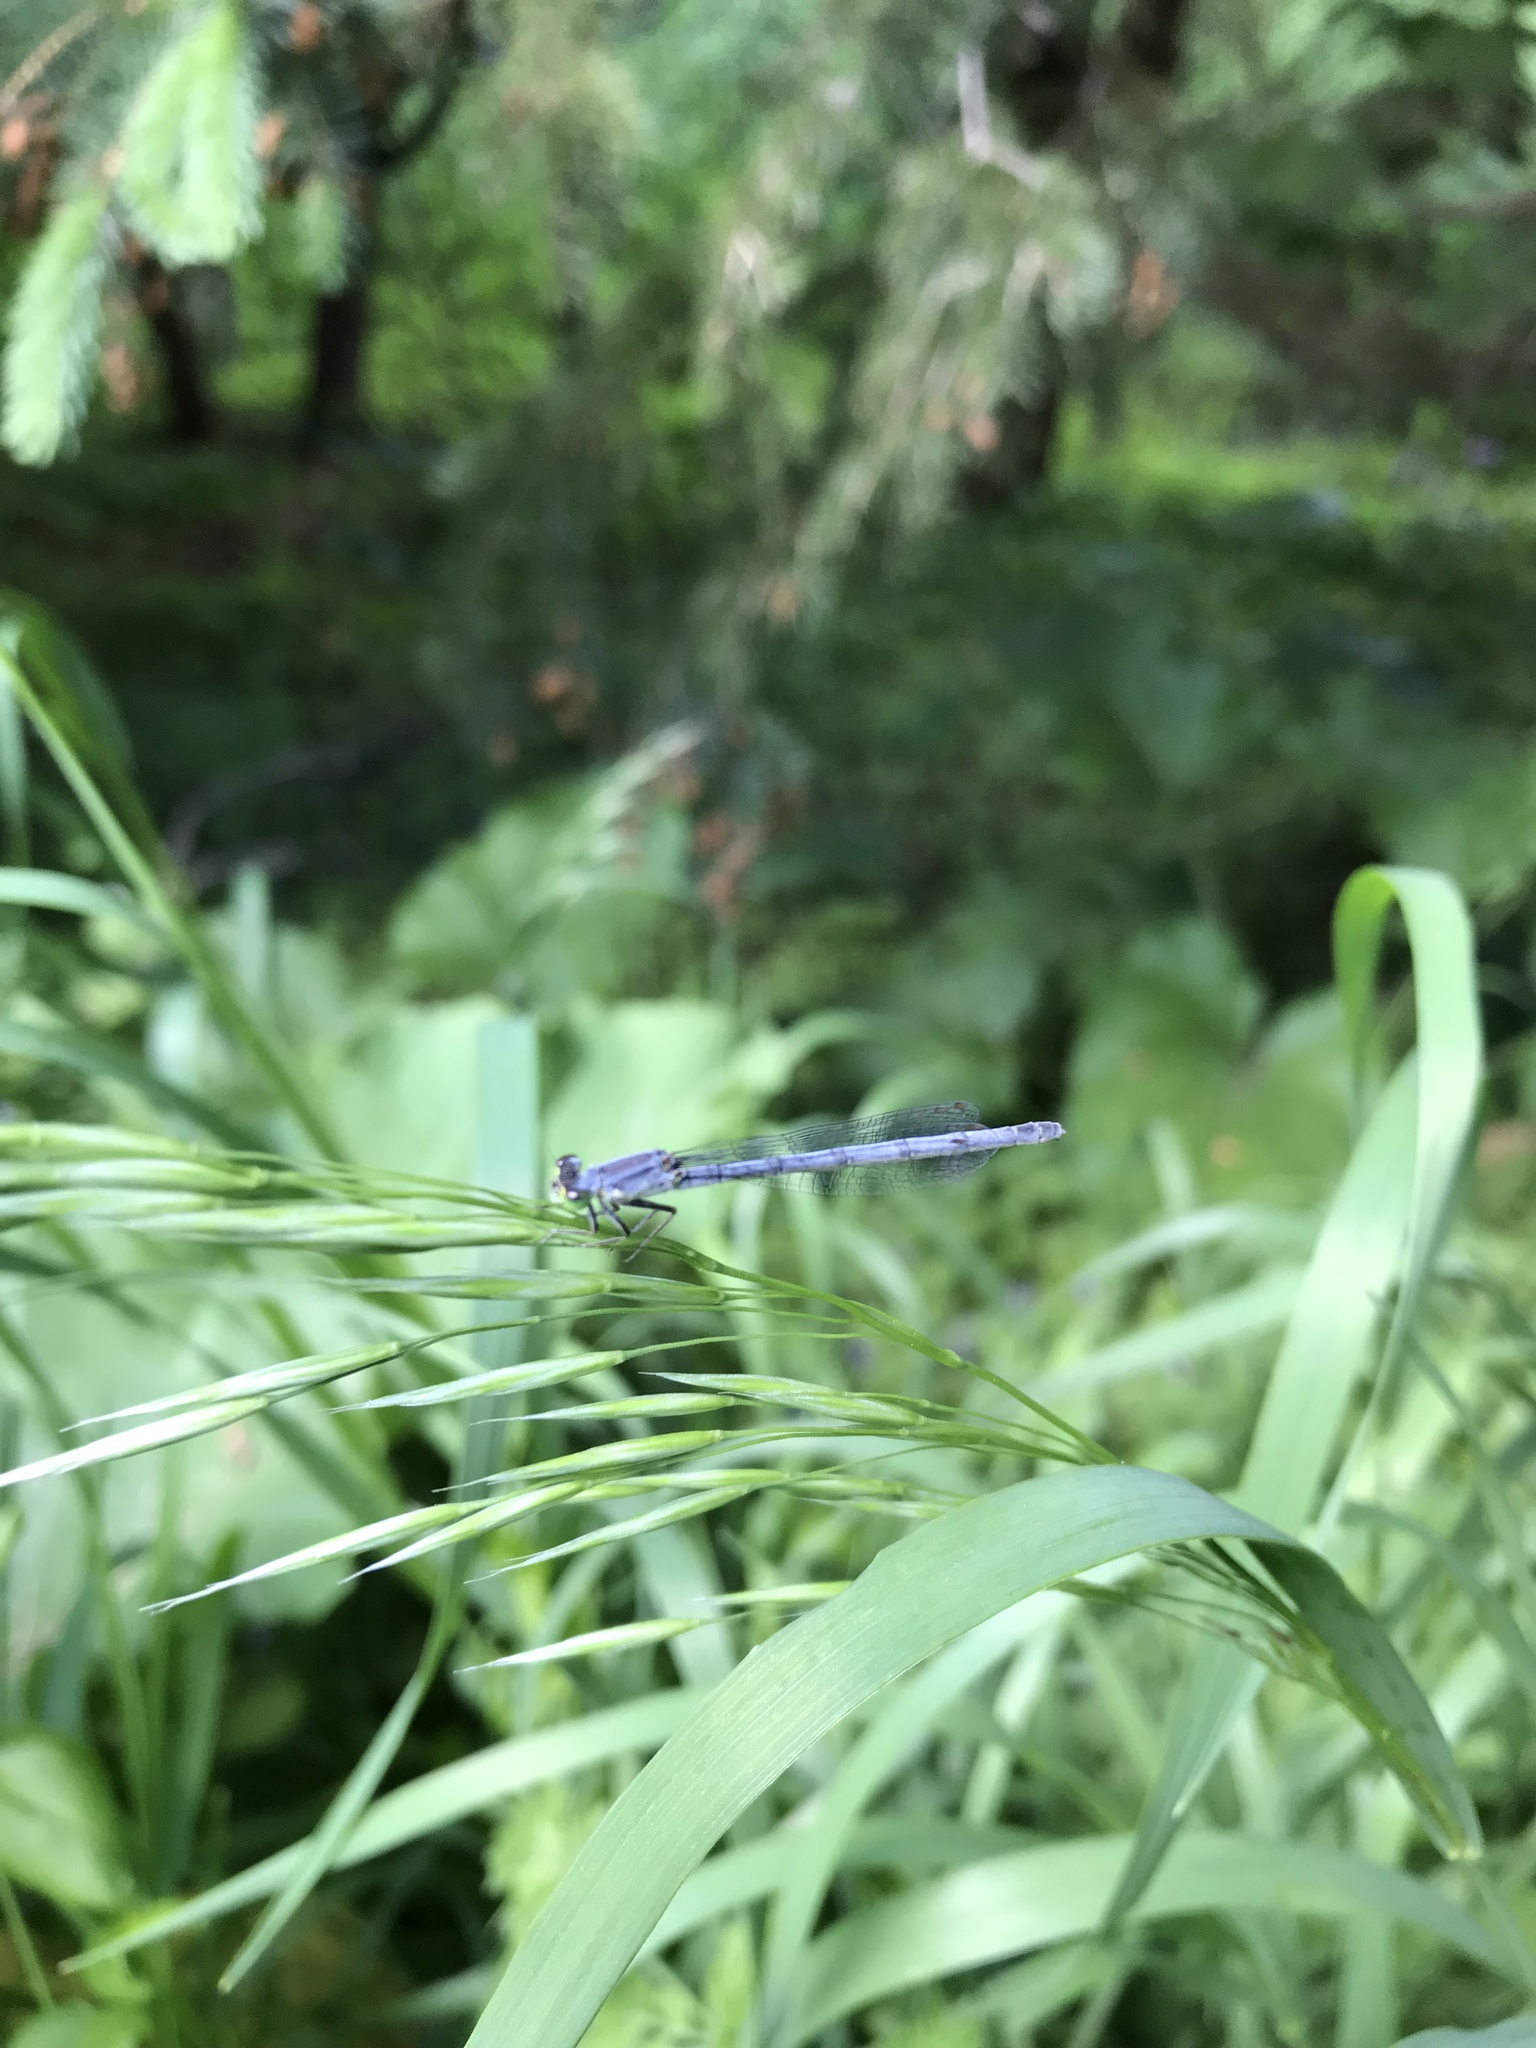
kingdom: Animalia
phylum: Arthropoda
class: Insecta
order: Odonata
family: Coenagrionidae
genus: Ischnura
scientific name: Ischnura verticalis
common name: Eastern forktail
